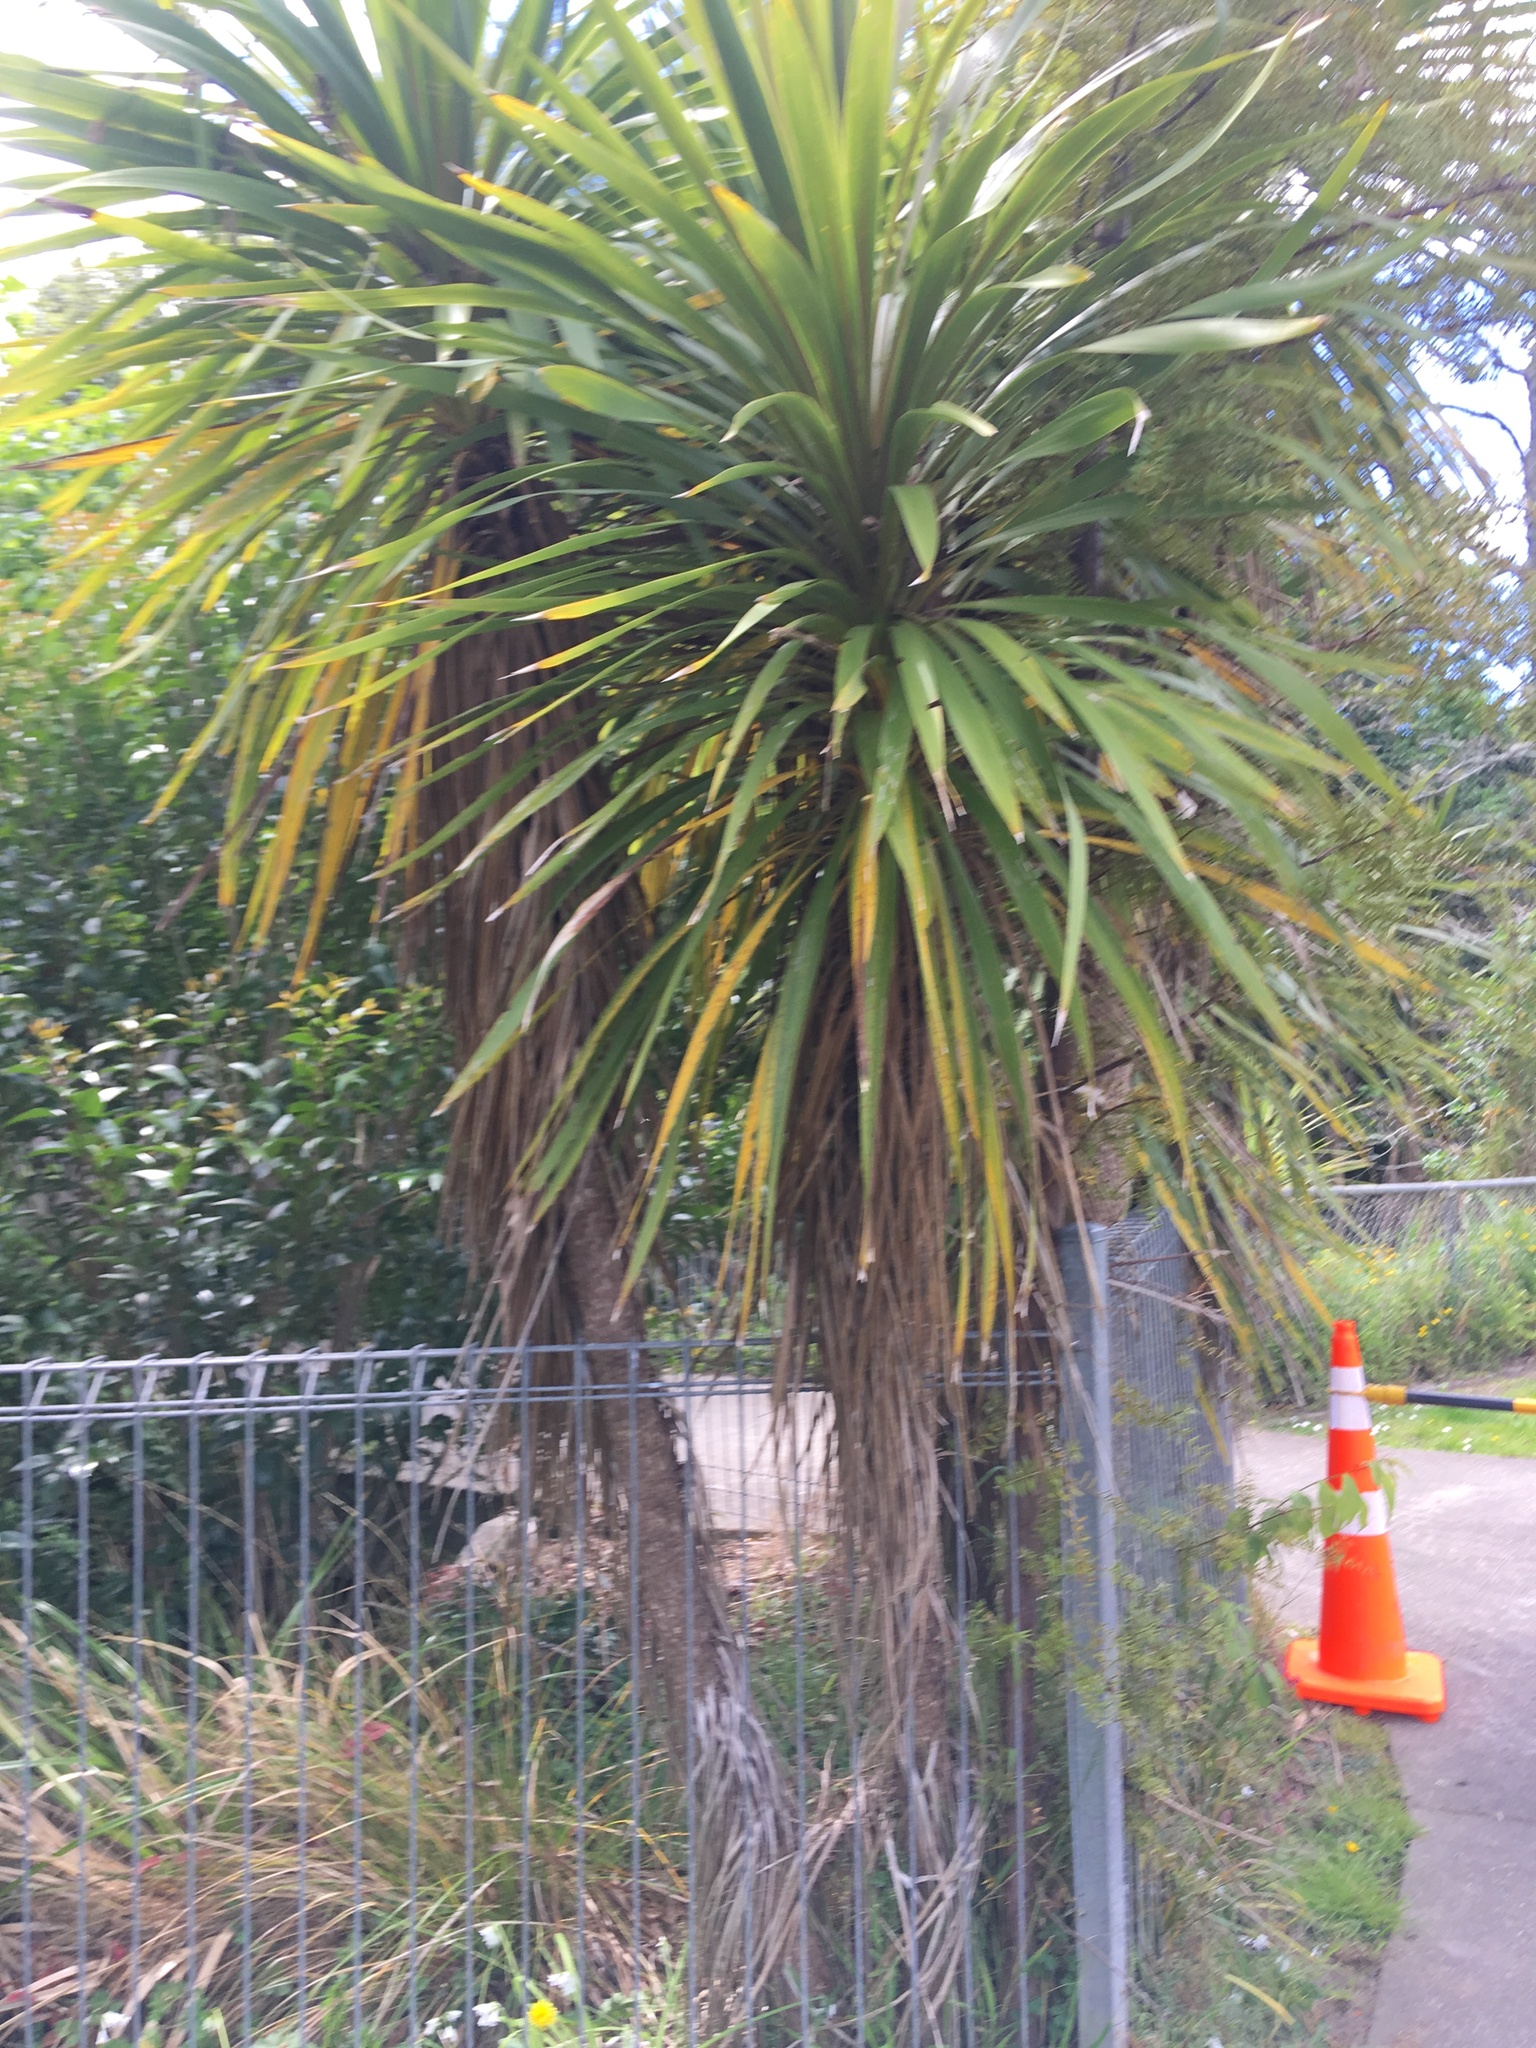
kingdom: Plantae
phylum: Tracheophyta
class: Liliopsida
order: Asparagales
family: Asparagaceae
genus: Cordyline
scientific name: Cordyline australis
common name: Cabbage-palm
